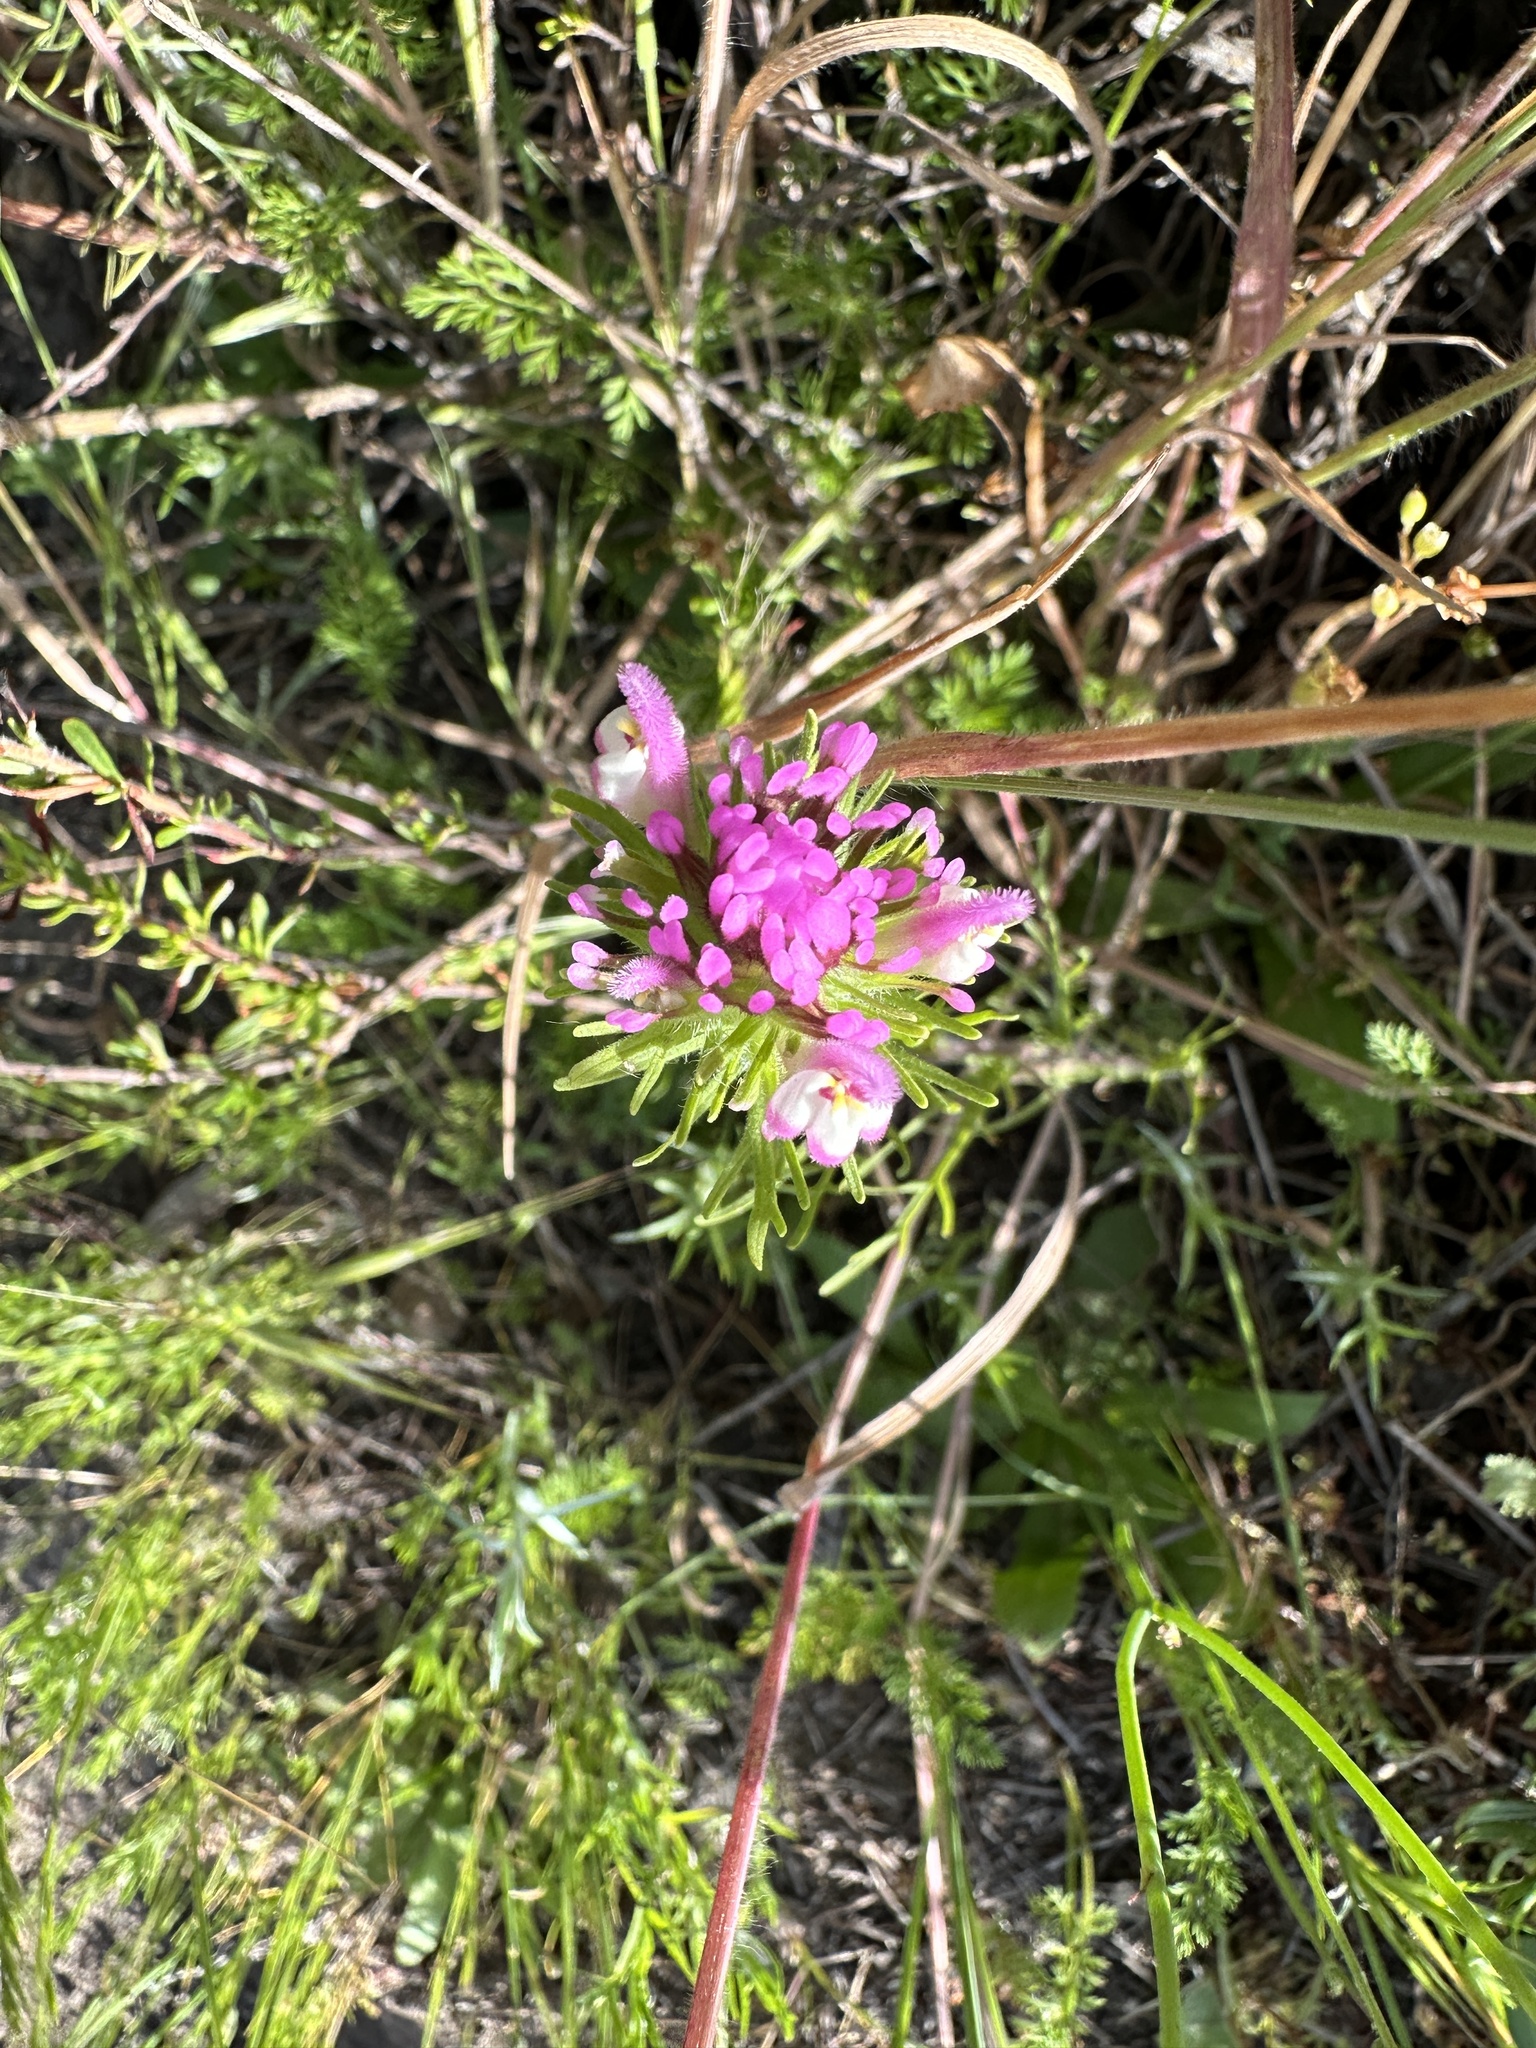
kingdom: Plantae
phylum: Tracheophyta
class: Magnoliopsida
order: Lamiales
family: Orobanchaceae
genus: Castilleja
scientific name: Castilleja exserta
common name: Purple owl-clover
